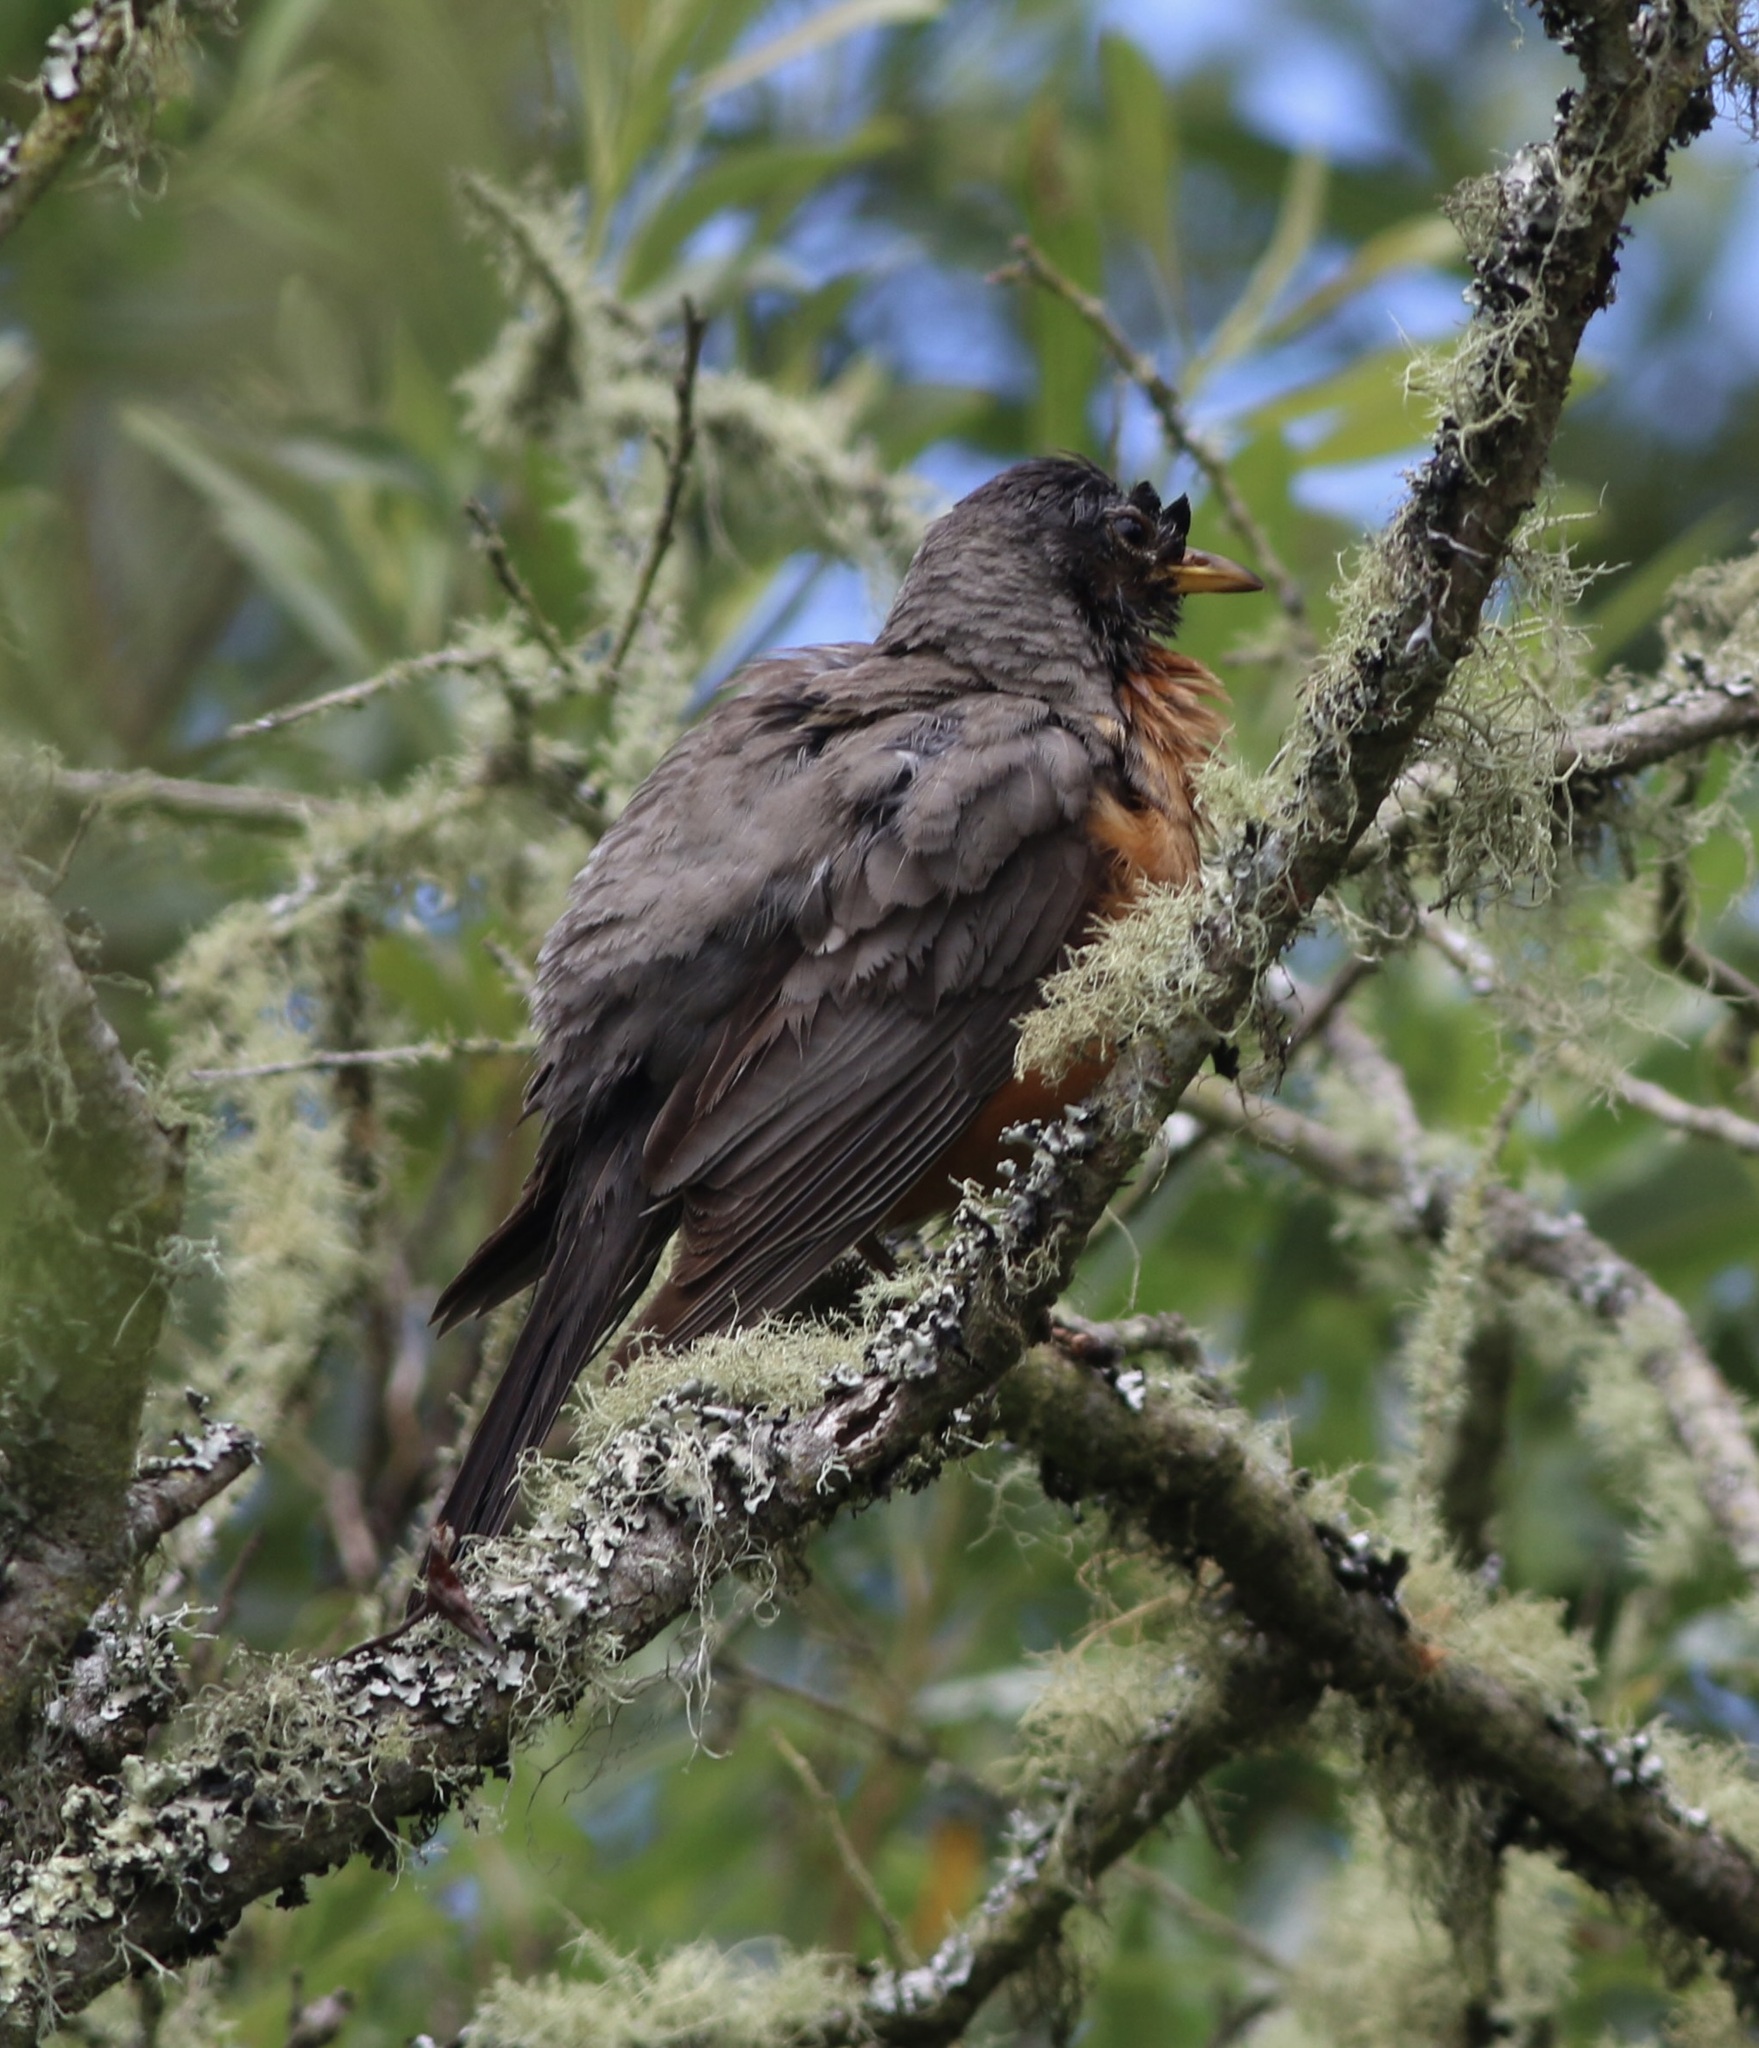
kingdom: Animalia
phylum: Chordata
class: Aves
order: Passeriformes
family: Turdidae
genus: Turdus
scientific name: Turdus migratorius
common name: American robin
